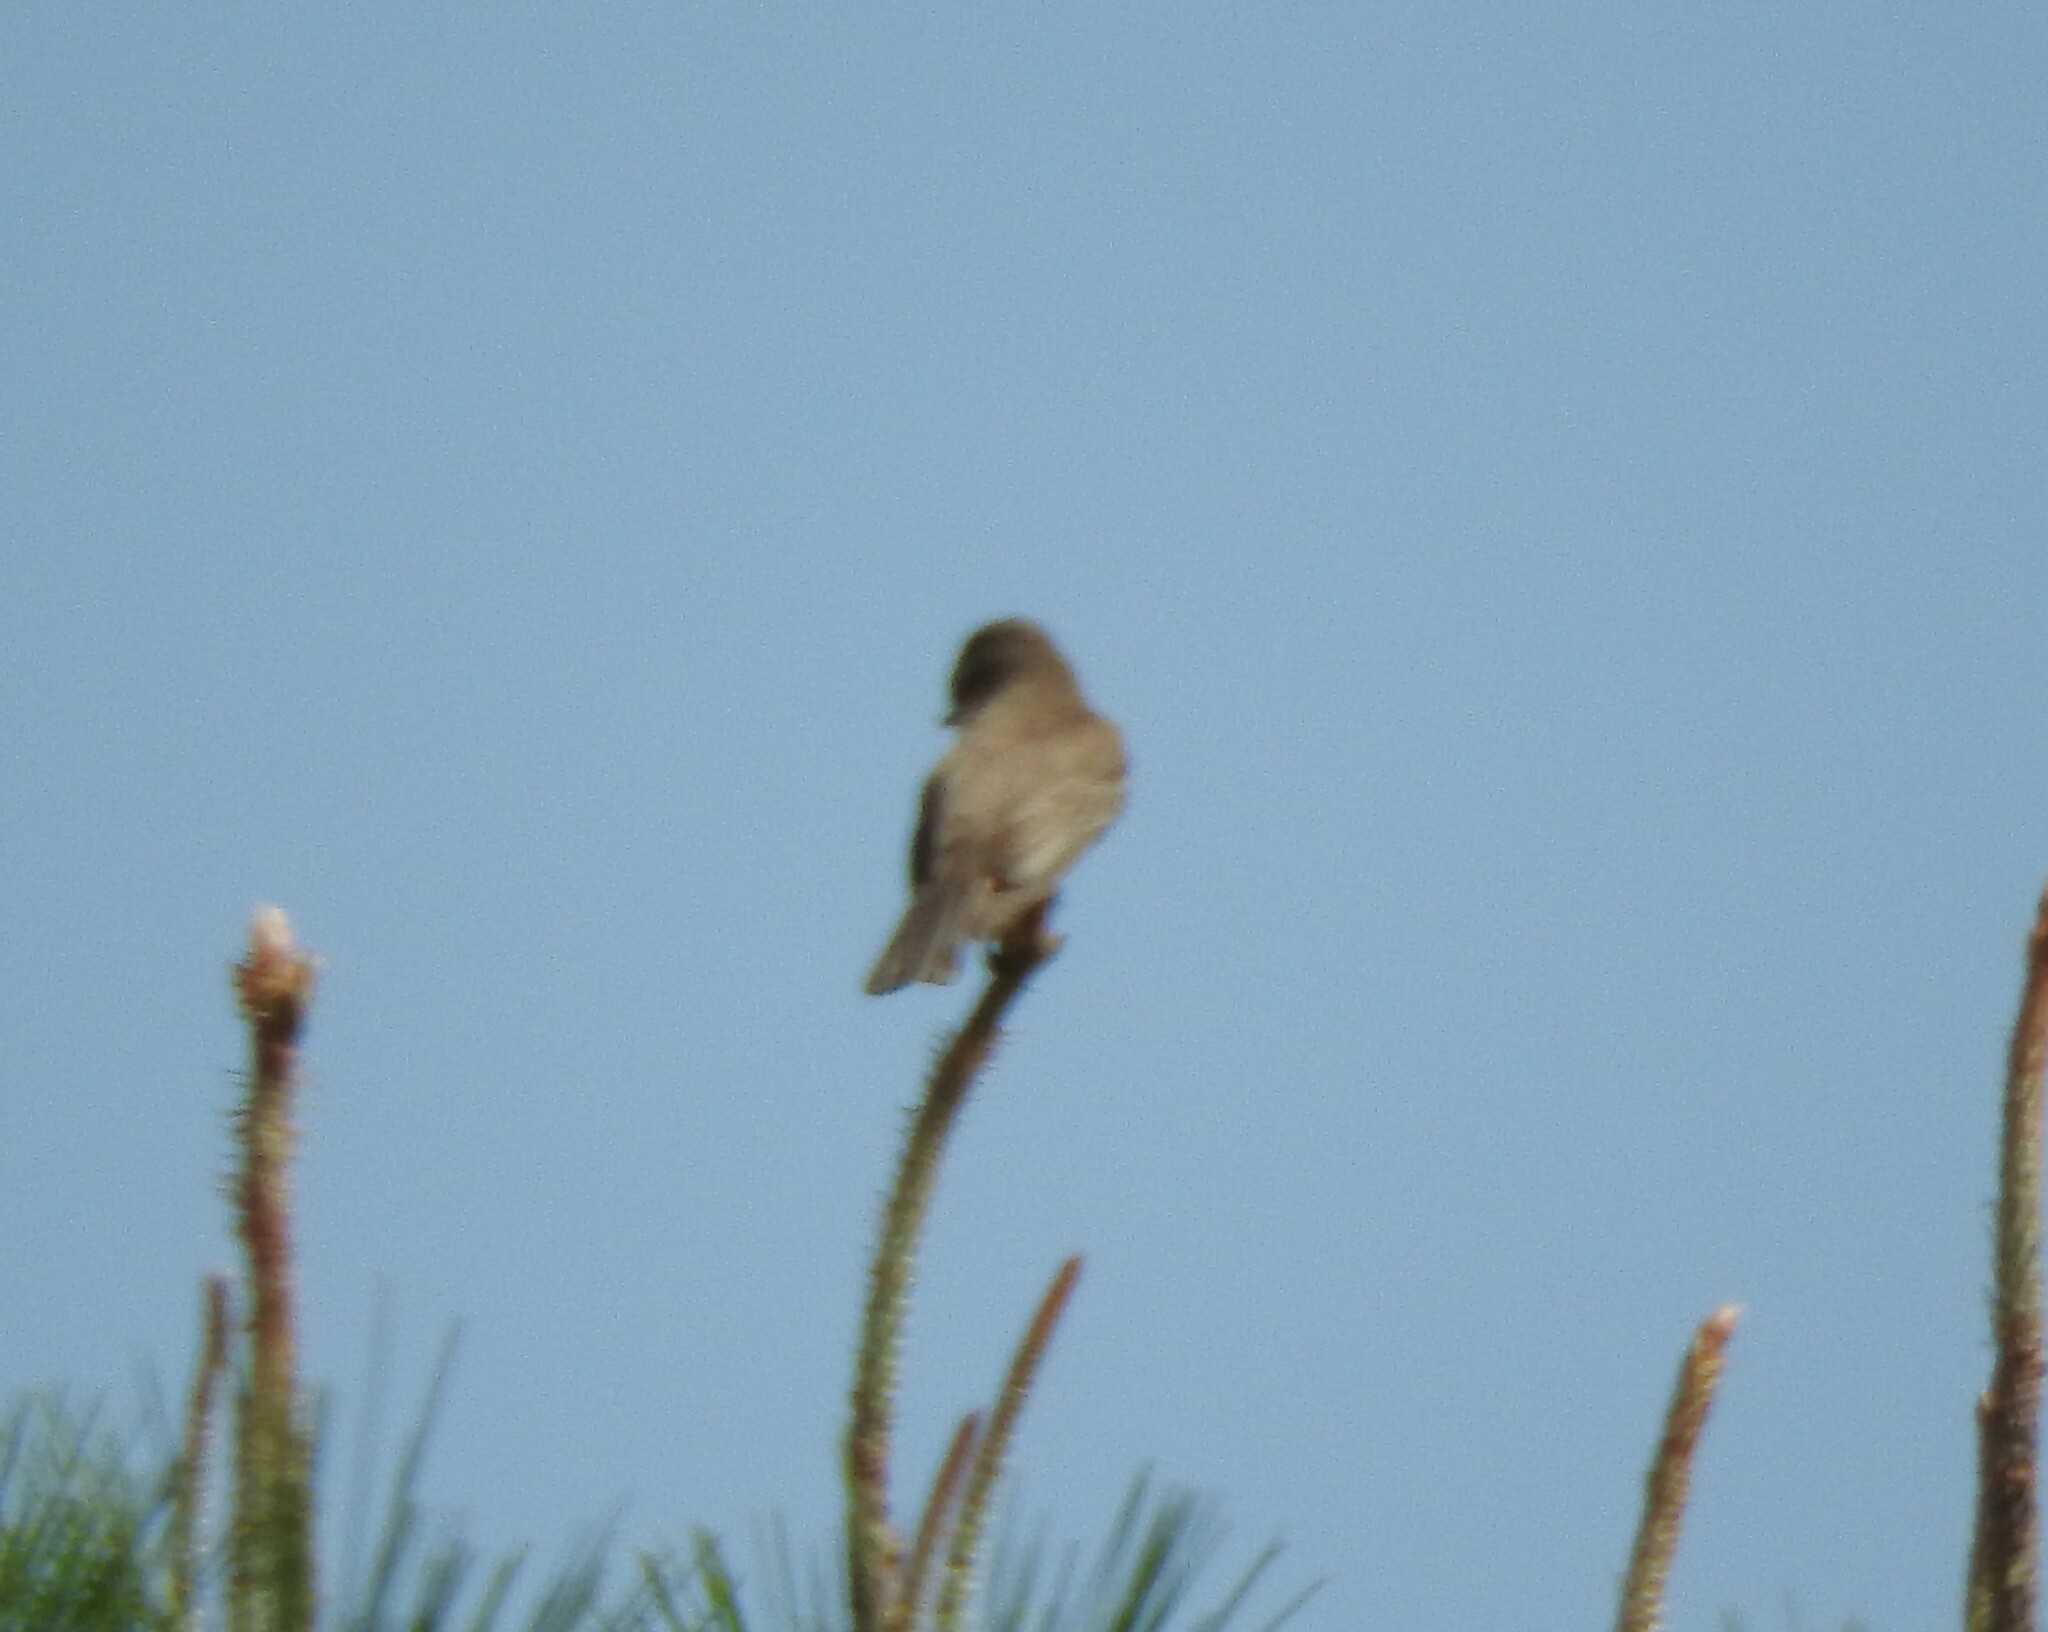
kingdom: Animalia
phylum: Chordata
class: Aves
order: Passeriformes
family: Tyrannidae
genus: Pyrocephalus
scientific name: Pyrocephalus rubinus
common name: Vermilion flycatcher
